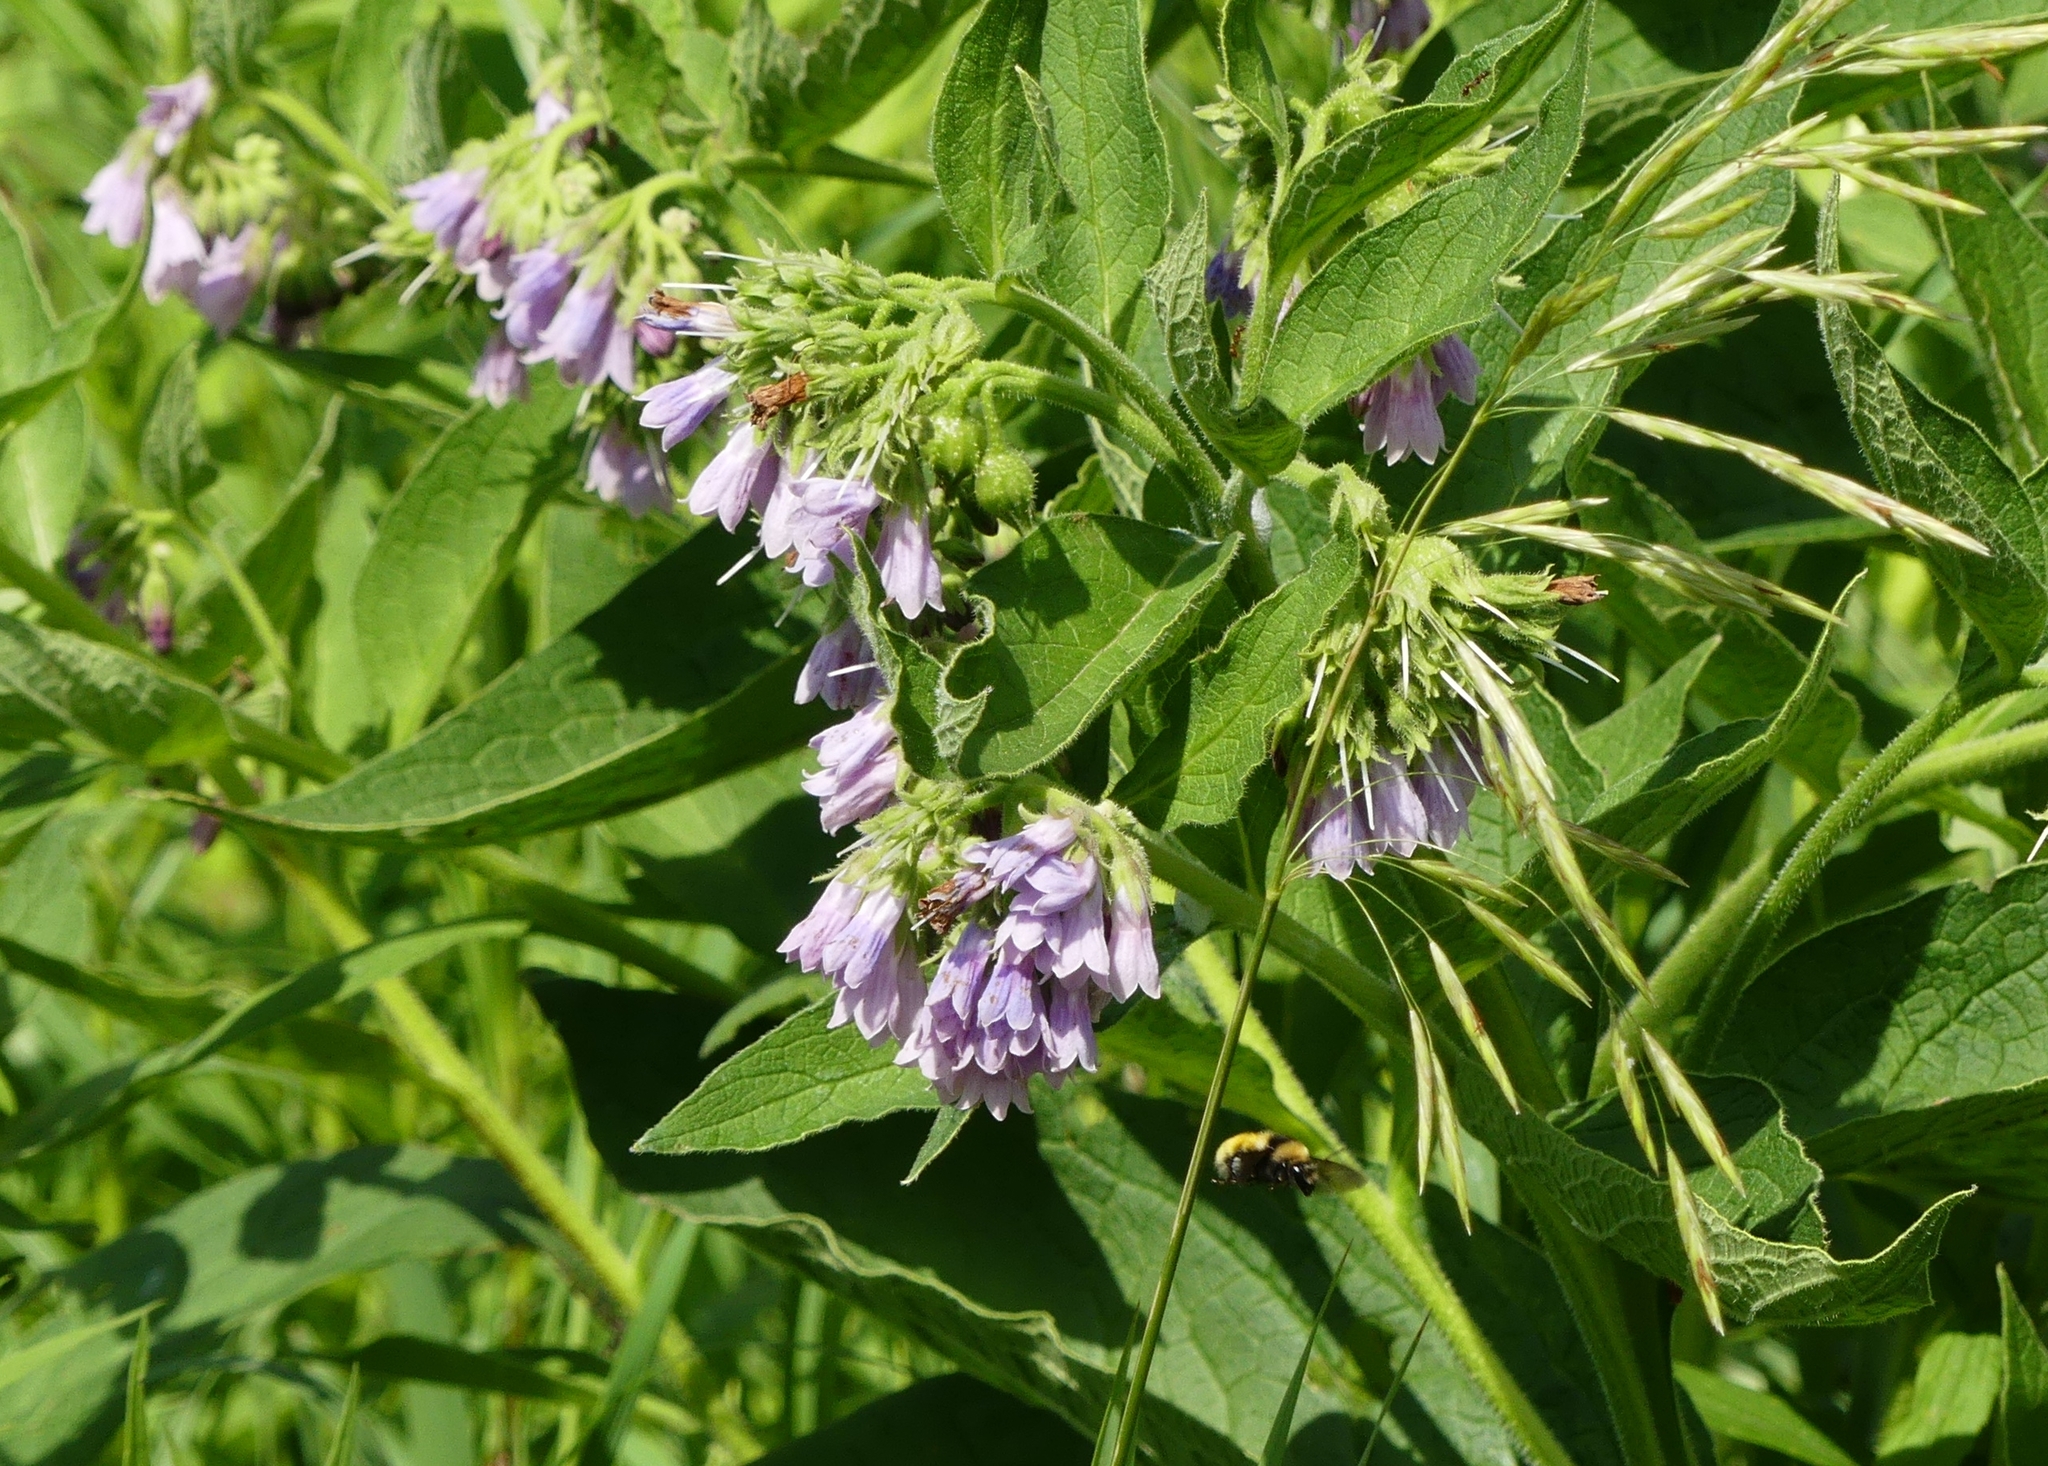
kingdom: Plantae
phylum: Tracheophyta
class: Magnoliopsida
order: Boraginales
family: Boraginaceae
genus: Symphytum
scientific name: Symphytum officinale
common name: Common comfrey
